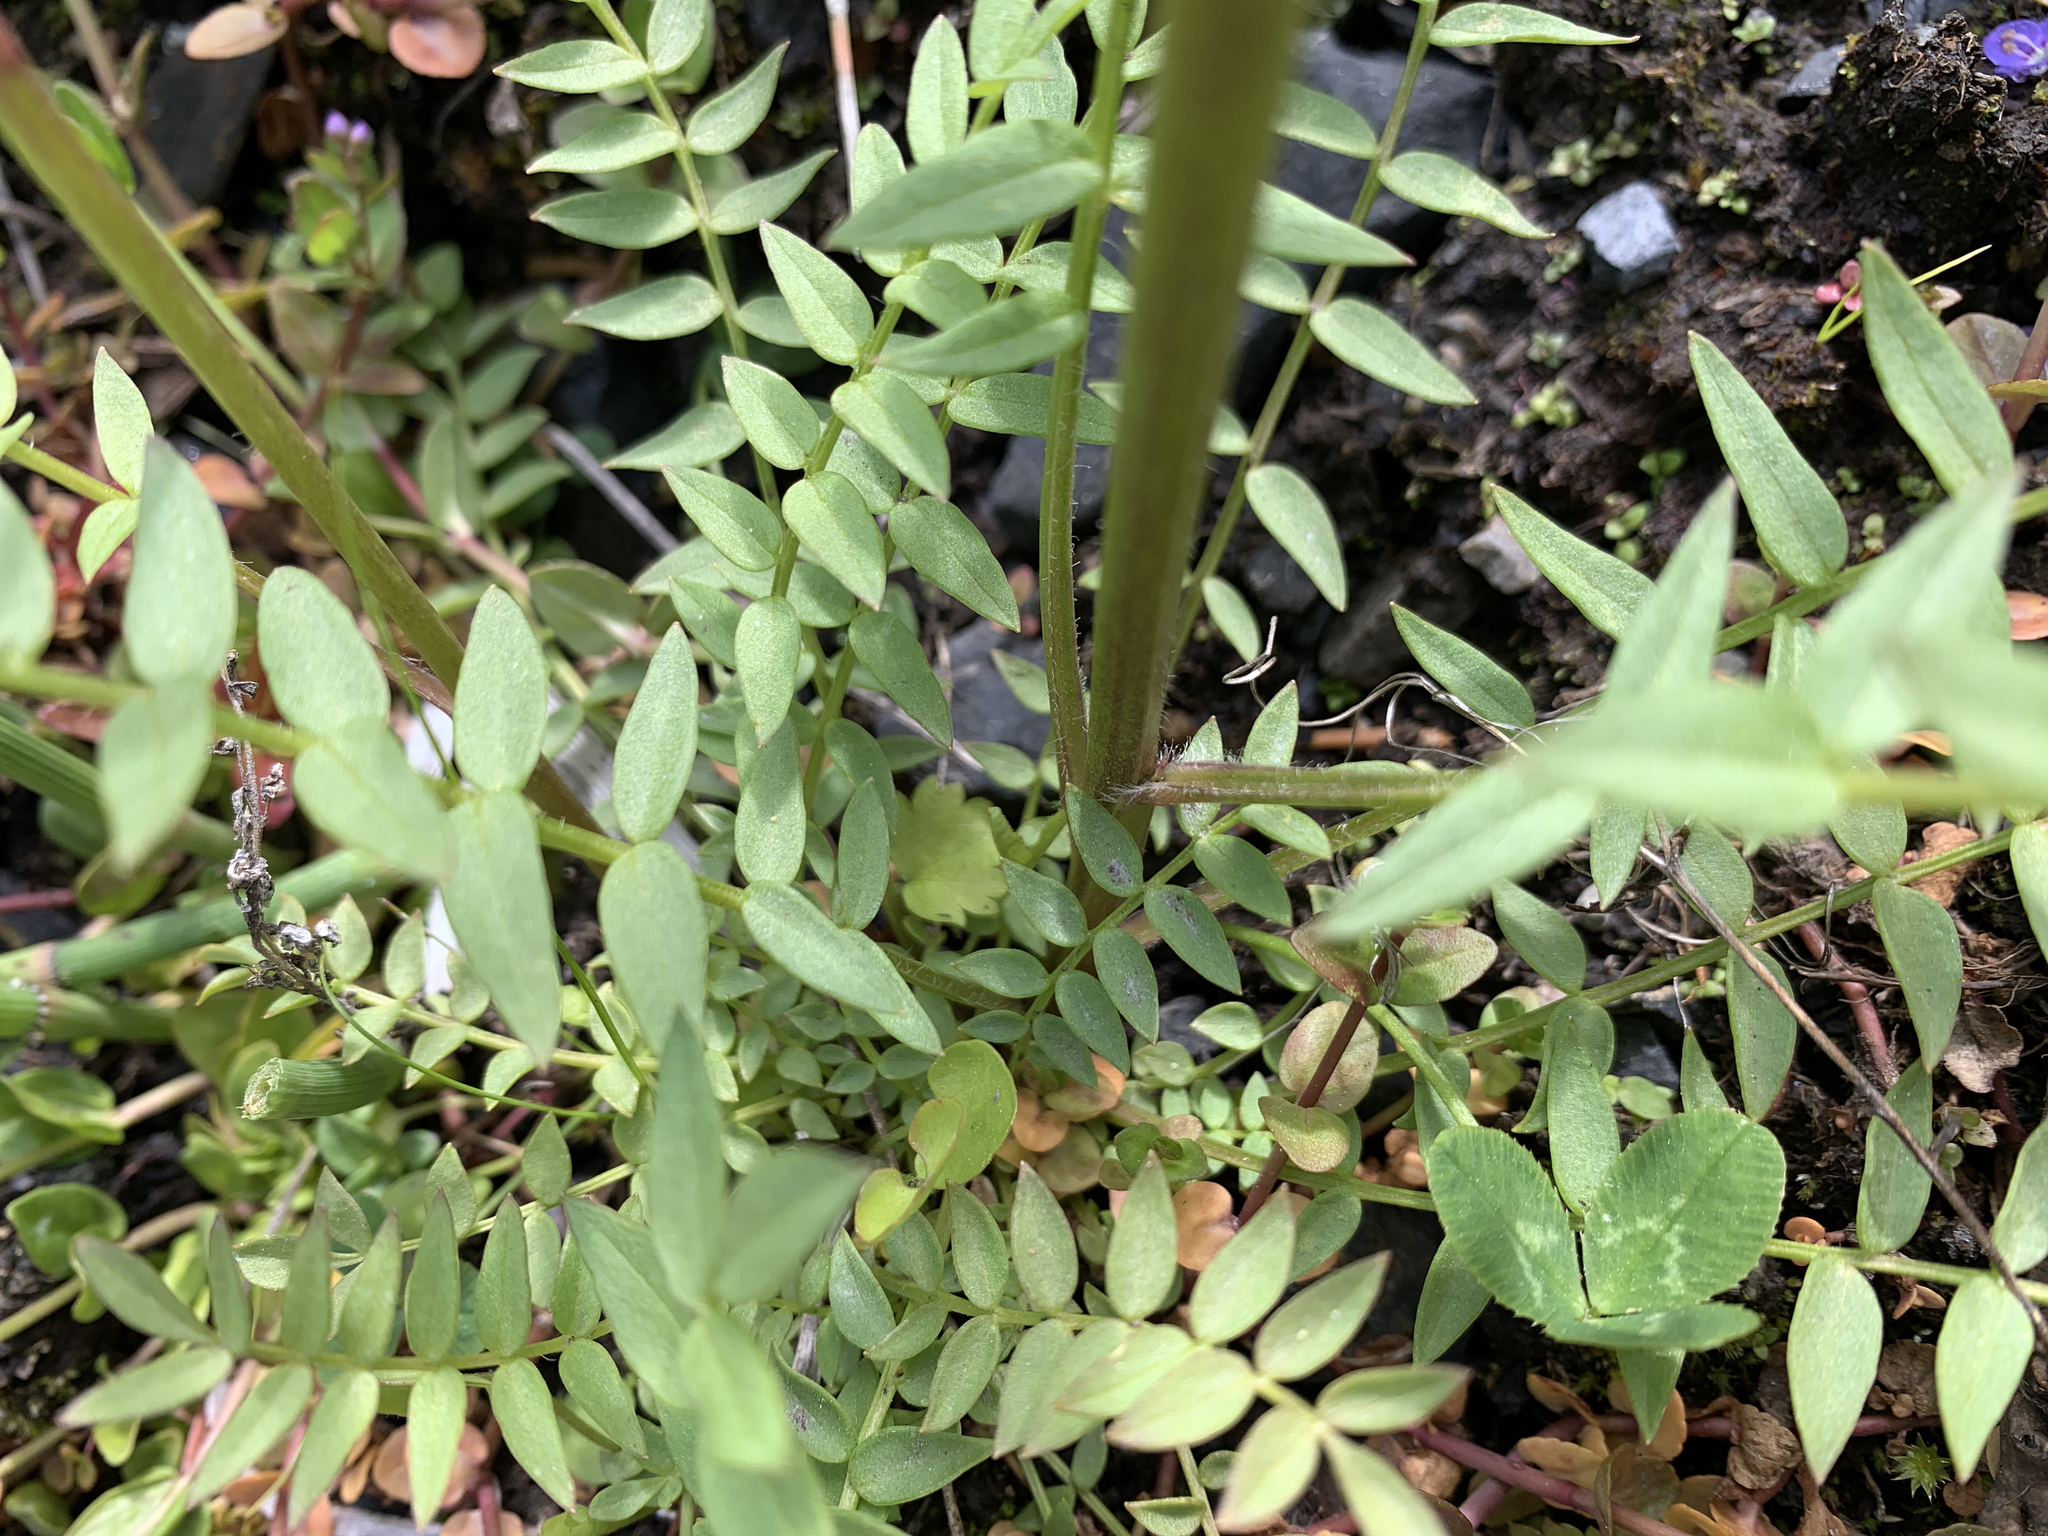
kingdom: Plantae
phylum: Tracheophyta
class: Magnoliopsida
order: Ericales
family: Polemoniaceae
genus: Polemonium
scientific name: Polemonium occidentale
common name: Western jacob's-ladder
